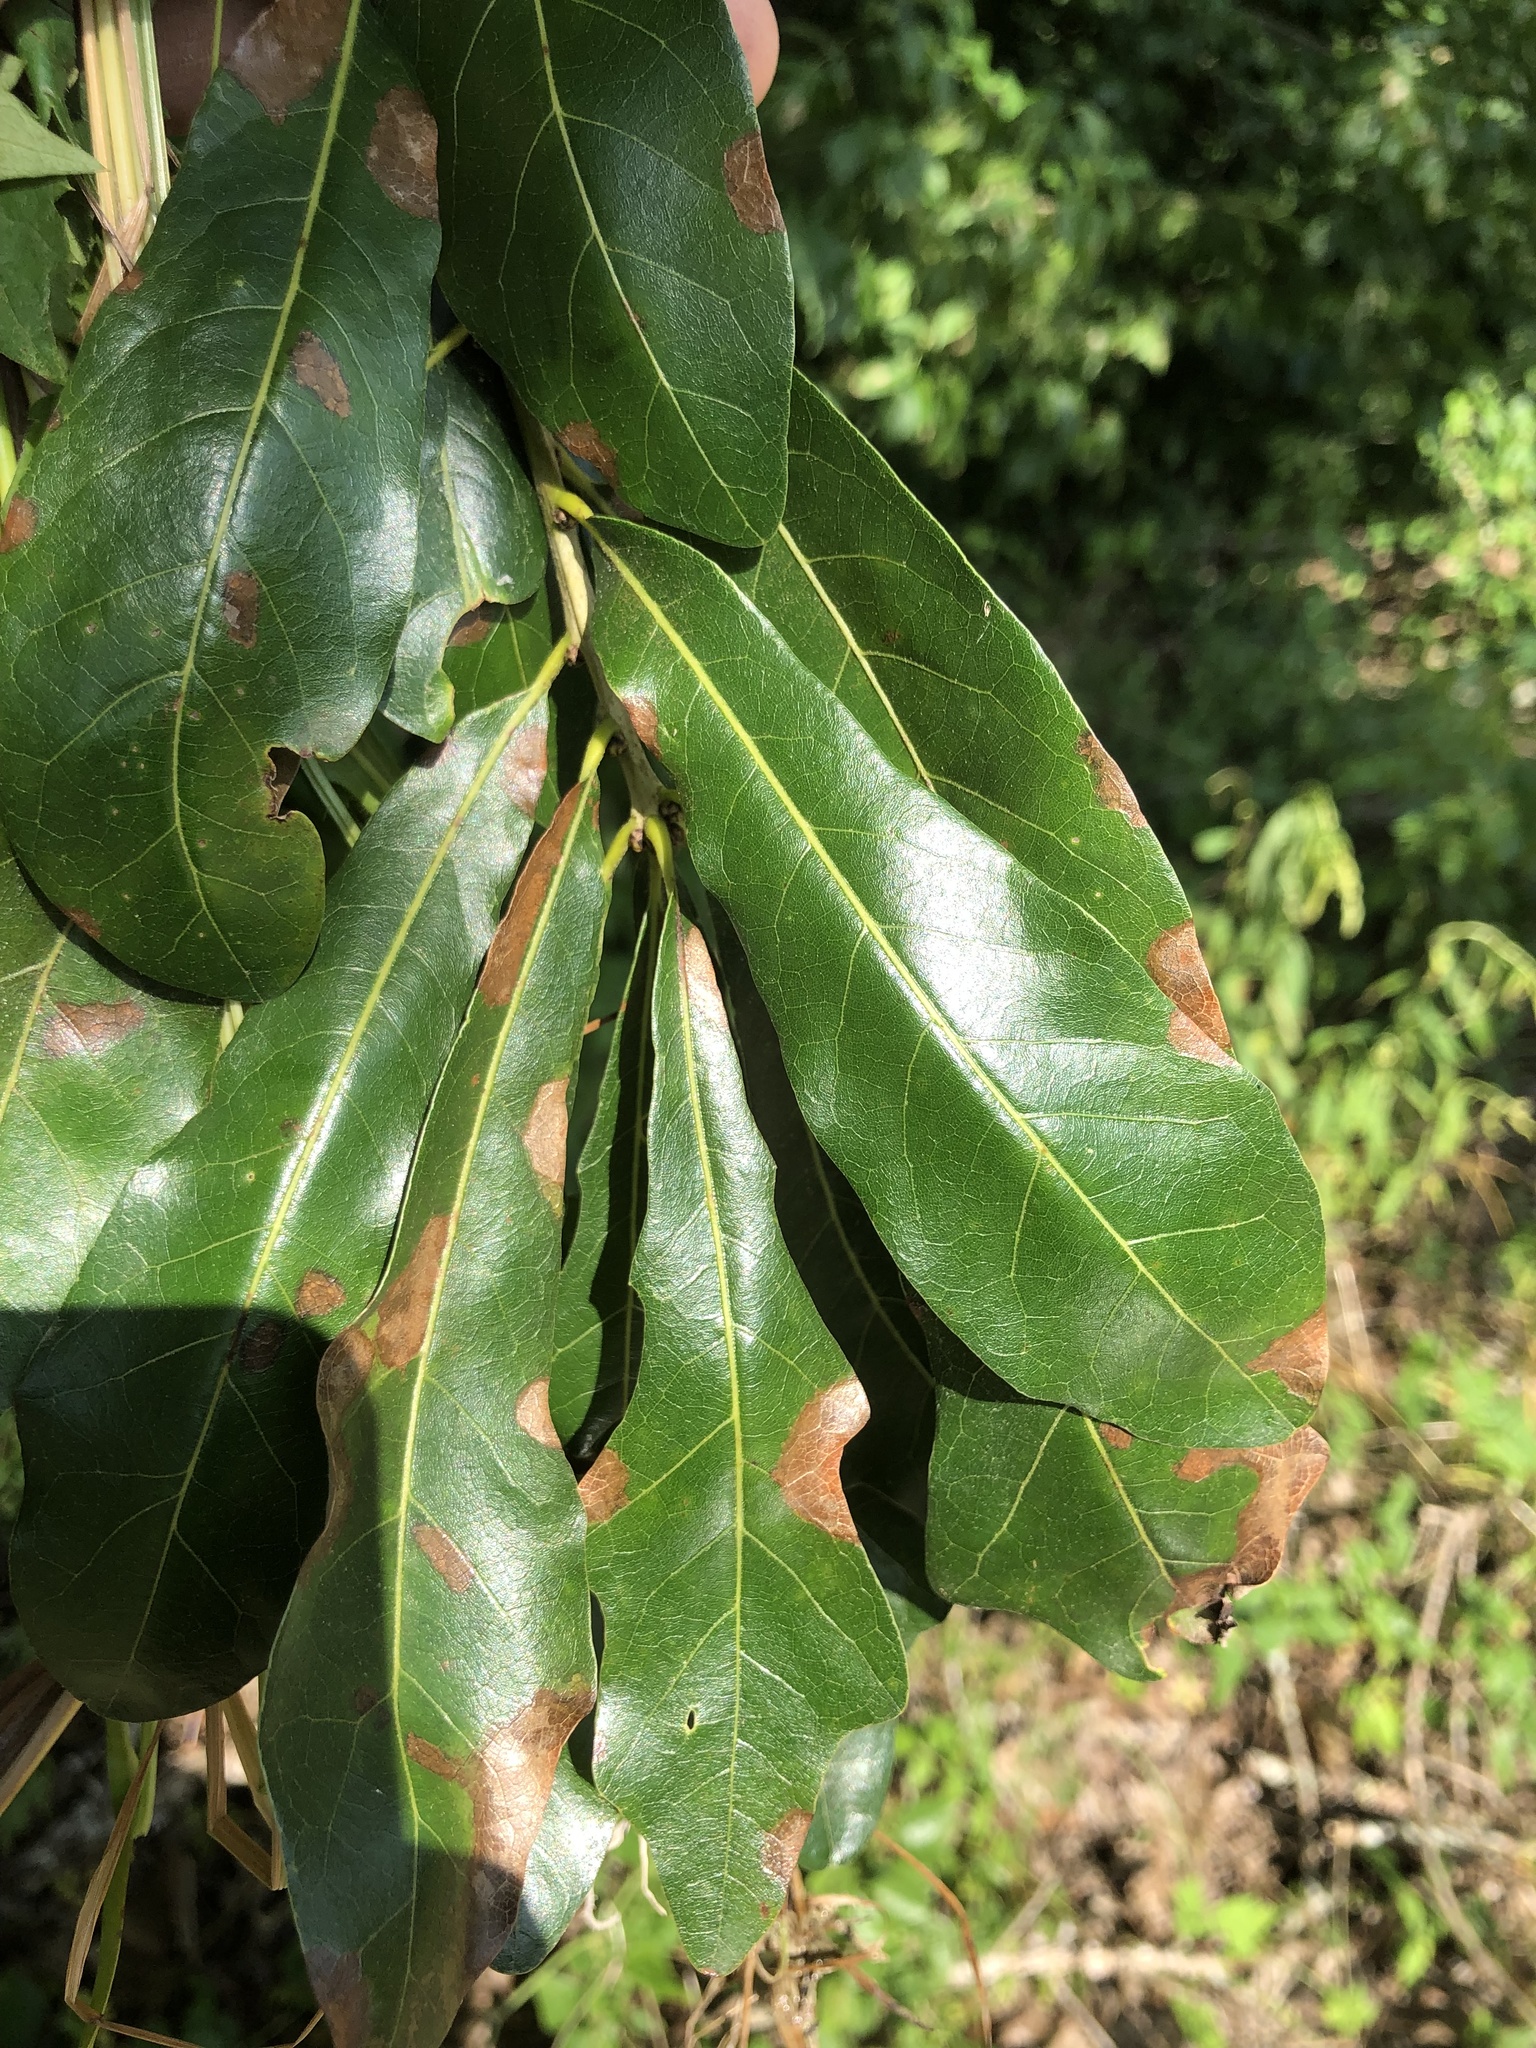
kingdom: Plantae
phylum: Tracheophyta
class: Magnoliopsida
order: Fagales
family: Fagaceae
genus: Quercus
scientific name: Quercus sinuata
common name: Durand oak
